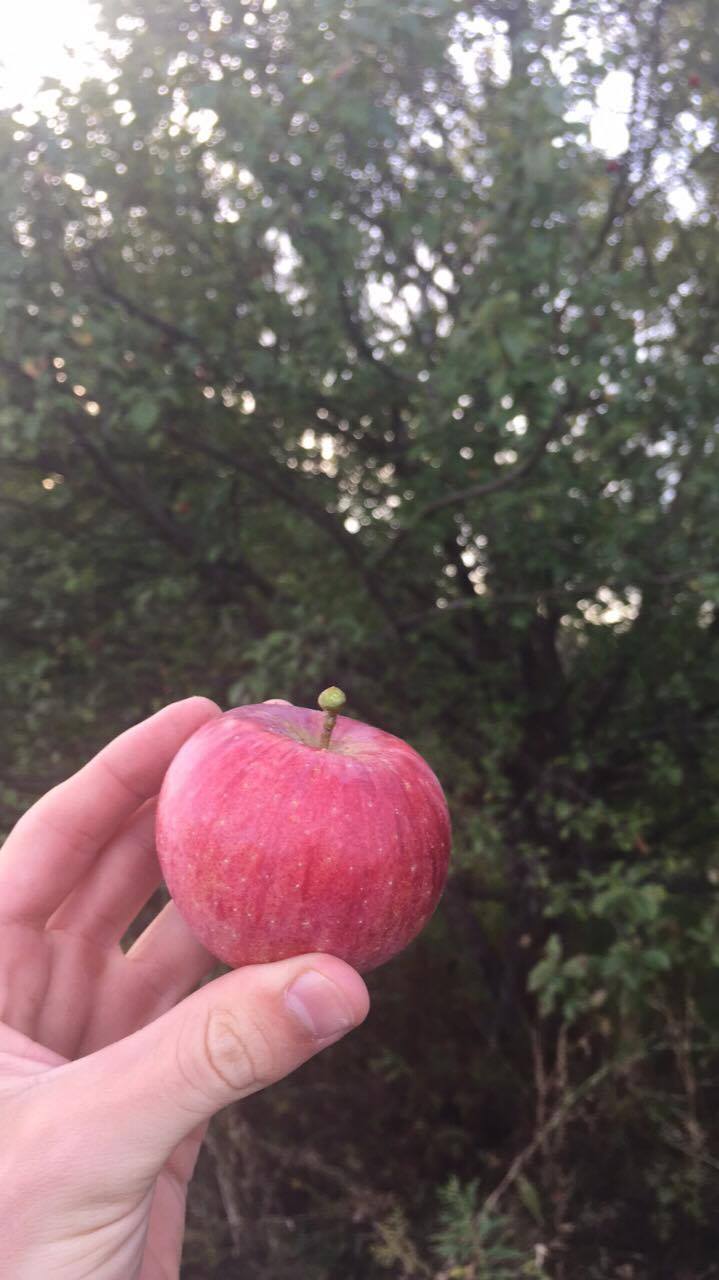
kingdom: Plantae
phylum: Tracheophyta
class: Magnoliopsida
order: Rosales
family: Rosaceae
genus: Malus
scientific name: Malus domestica
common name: Apple
